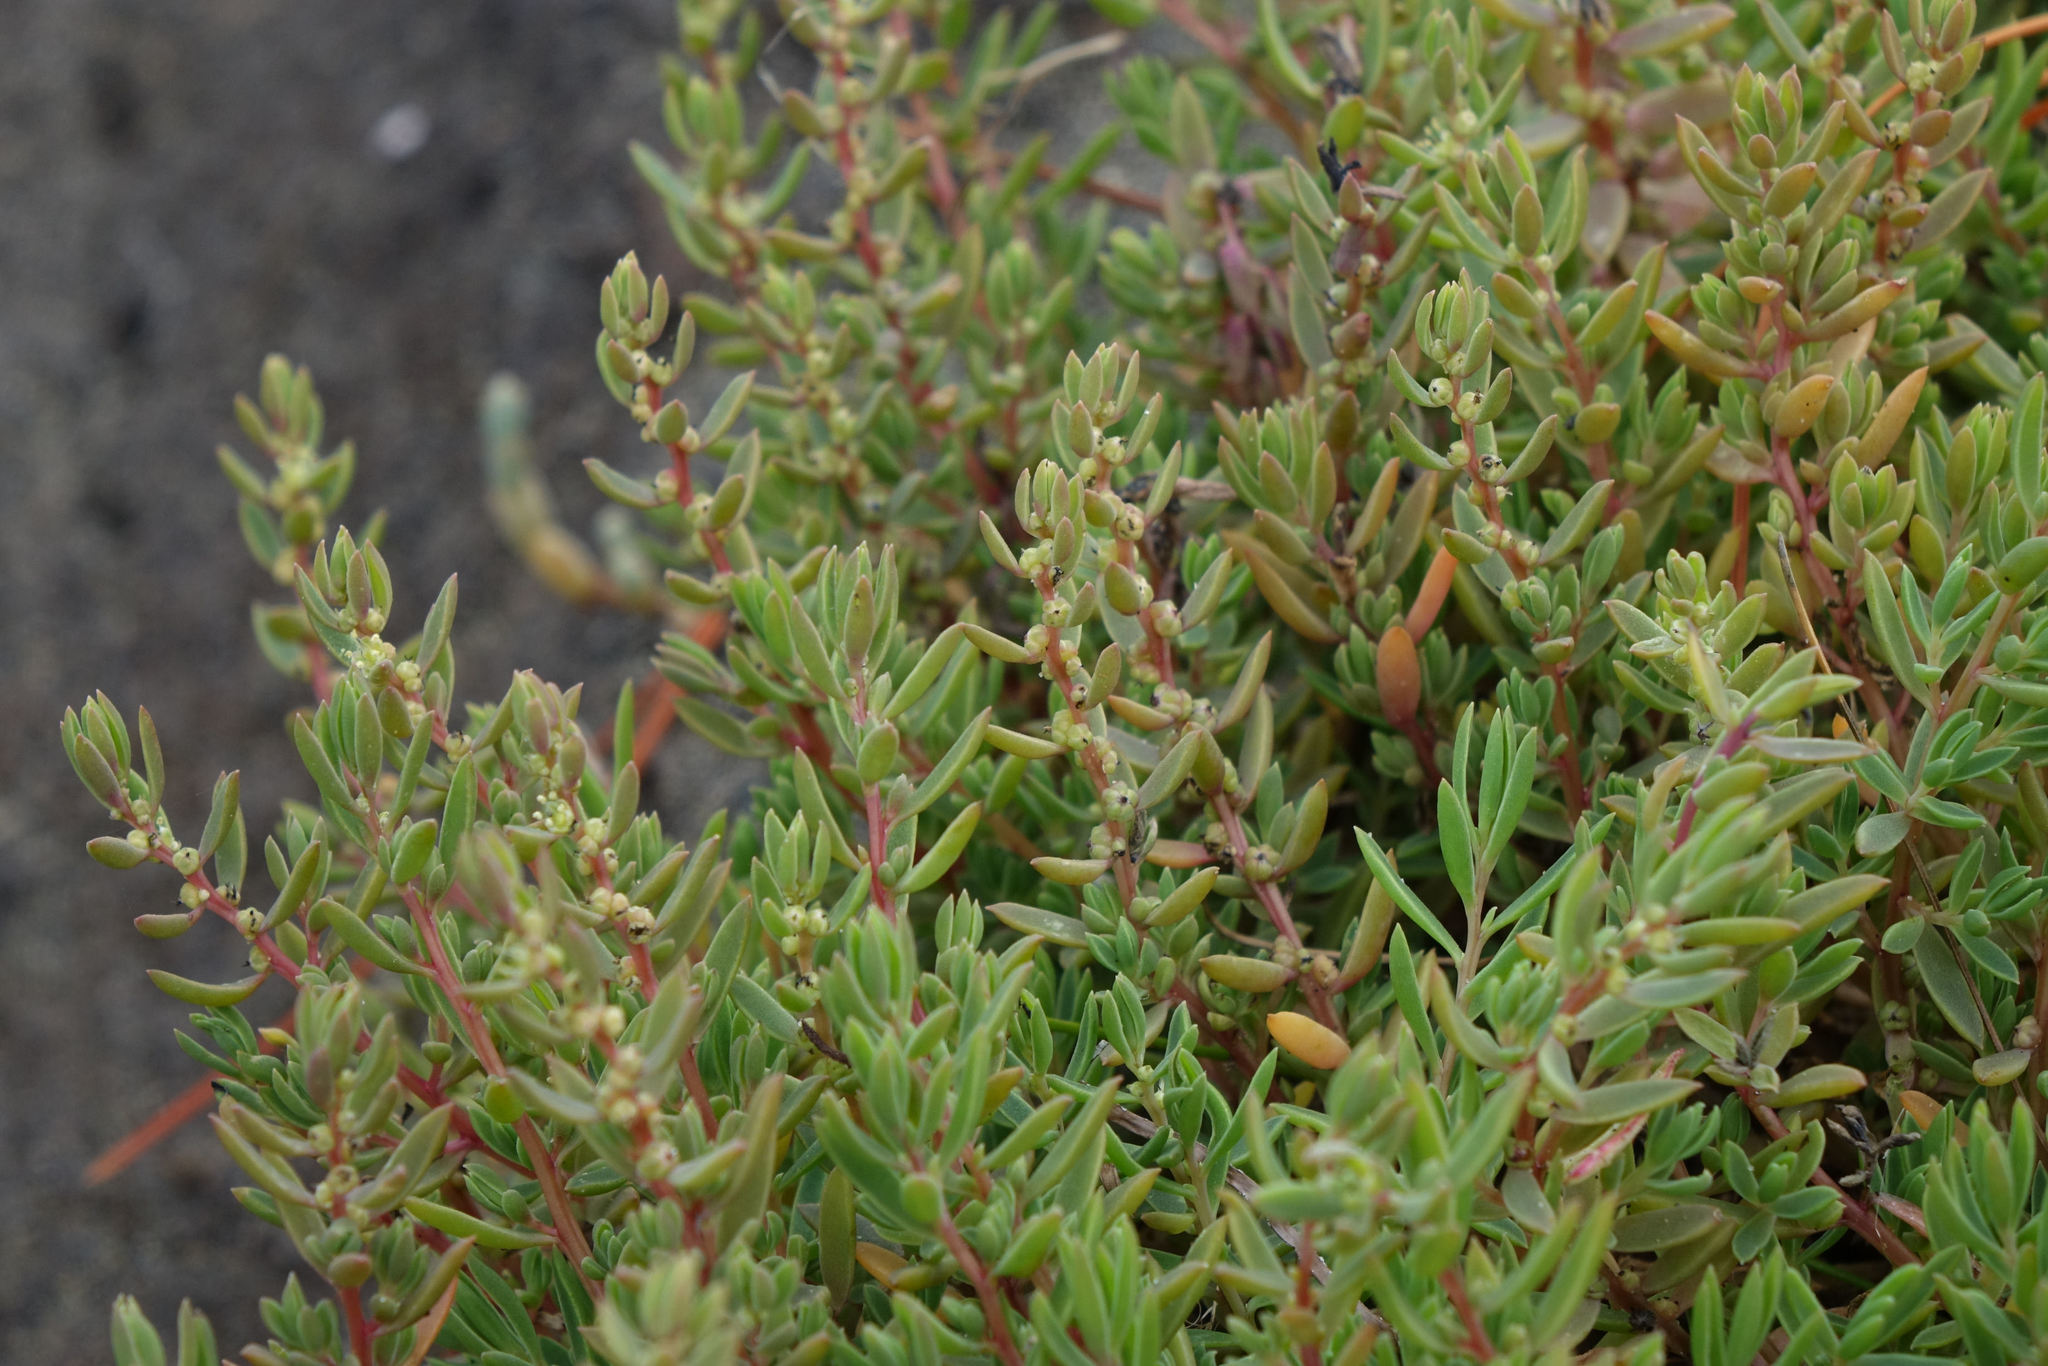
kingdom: Plantae
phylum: Tracheophyta
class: Magnoliopsida
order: Caryophyllales
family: Amaranthaceae
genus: Suaeda
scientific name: Suaeda novae-zelandiae
